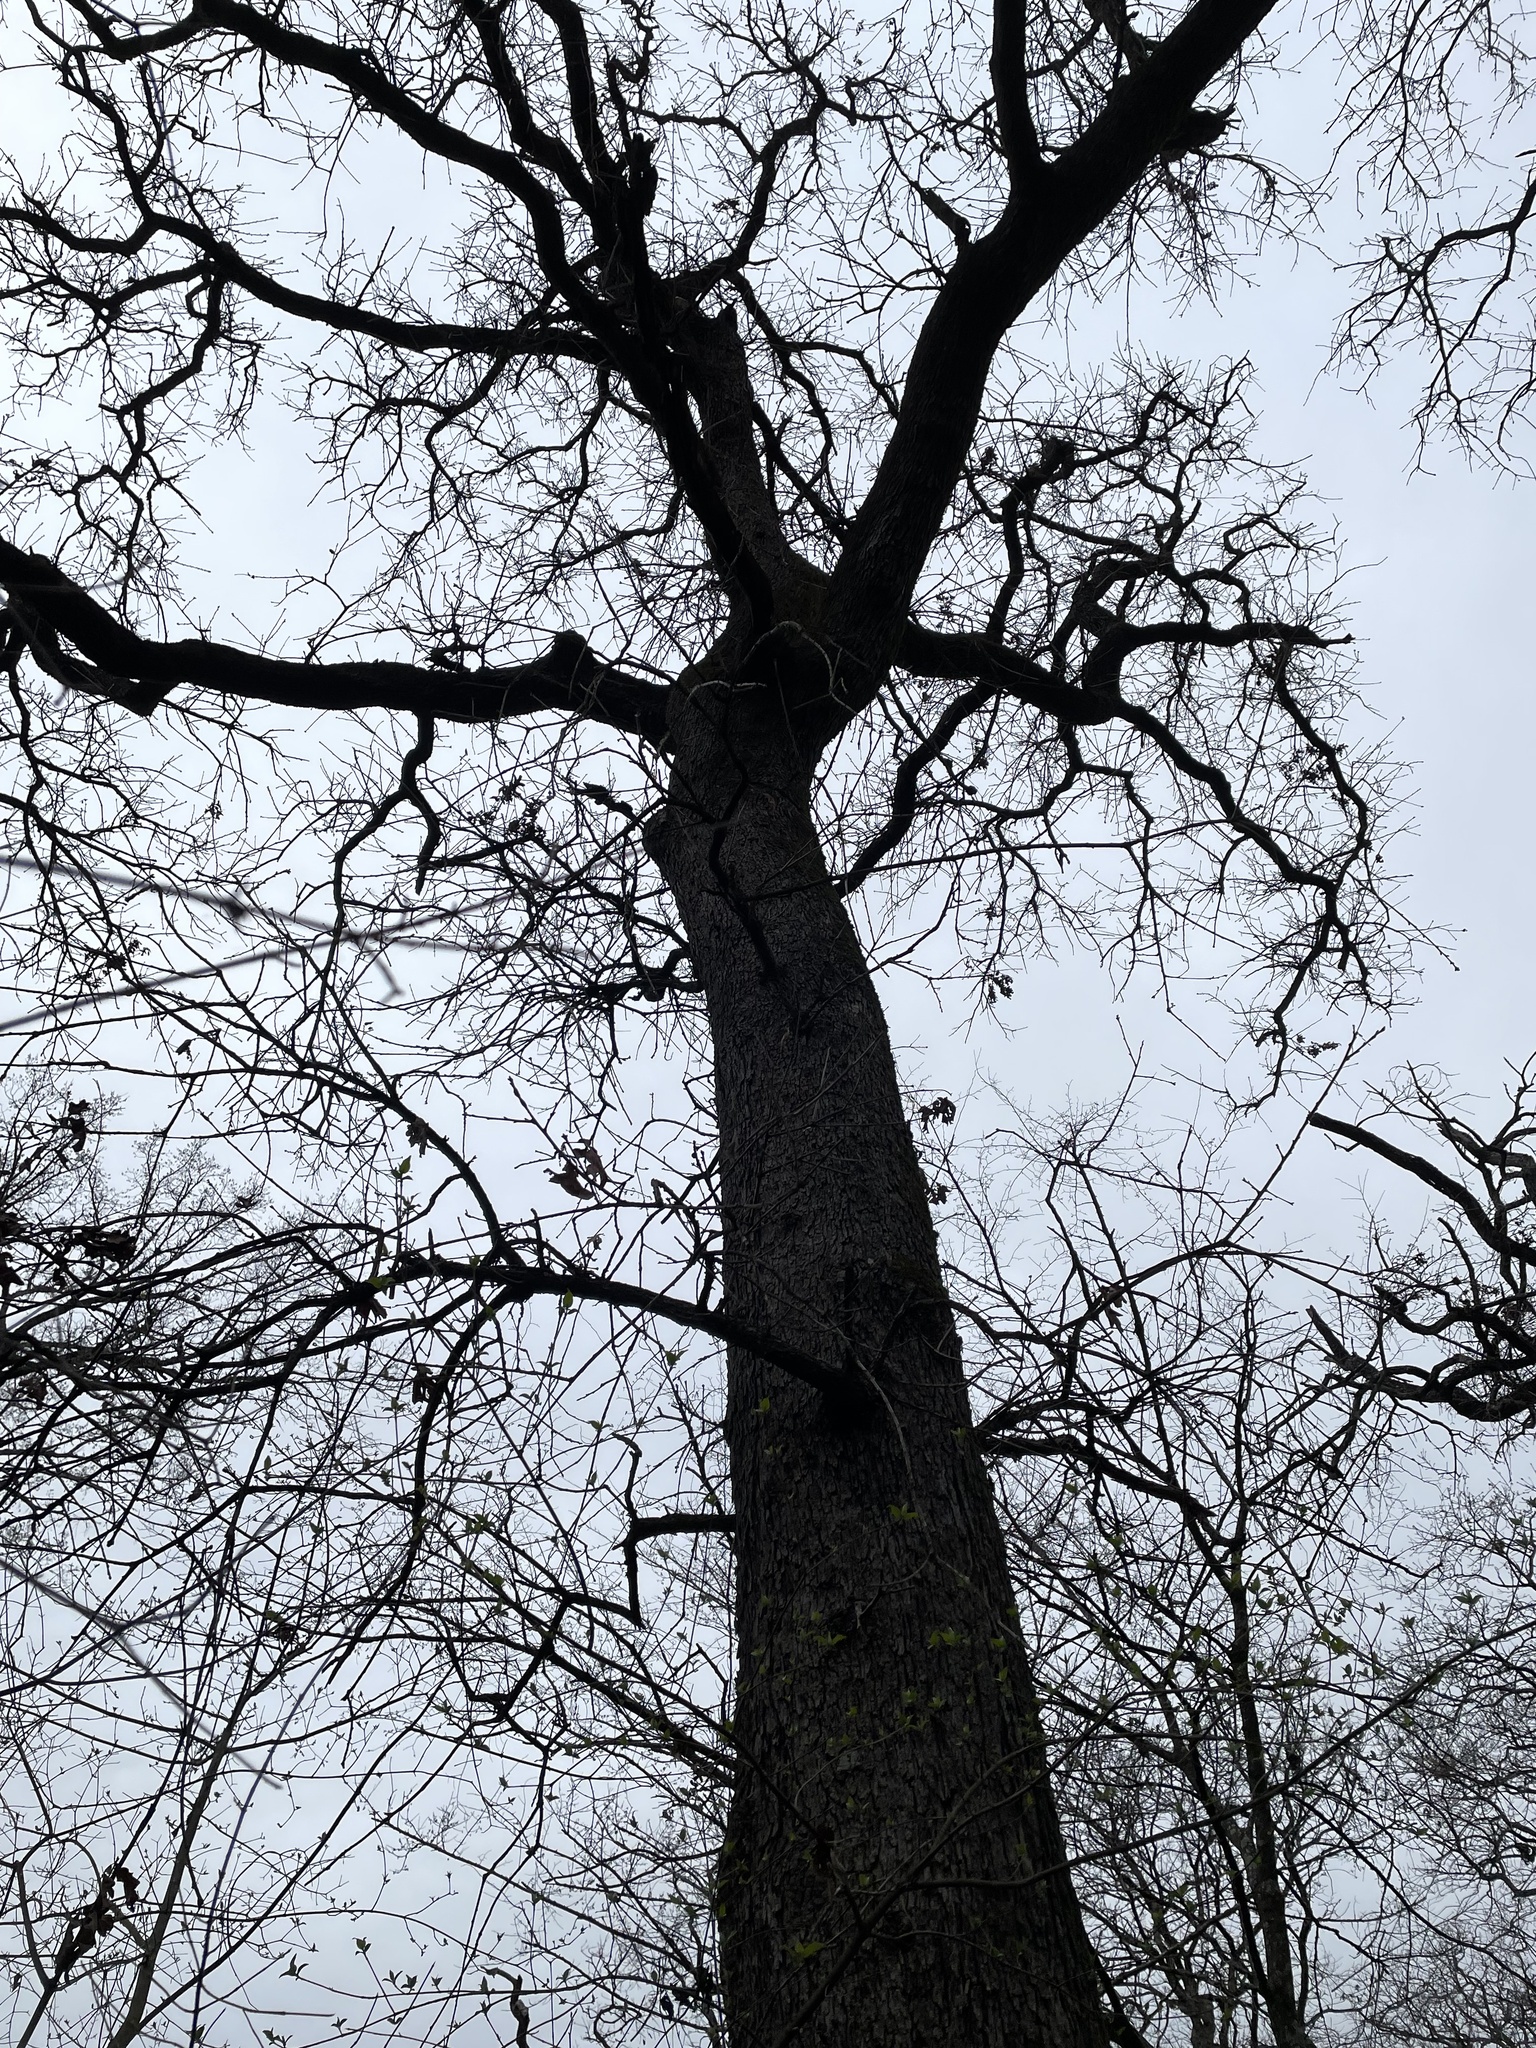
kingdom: Plantae
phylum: Tracheophyta
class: Magnoliopsida
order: Fagales
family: Fagaceae
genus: Quercus
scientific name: Quercus stellata
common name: Post oak
